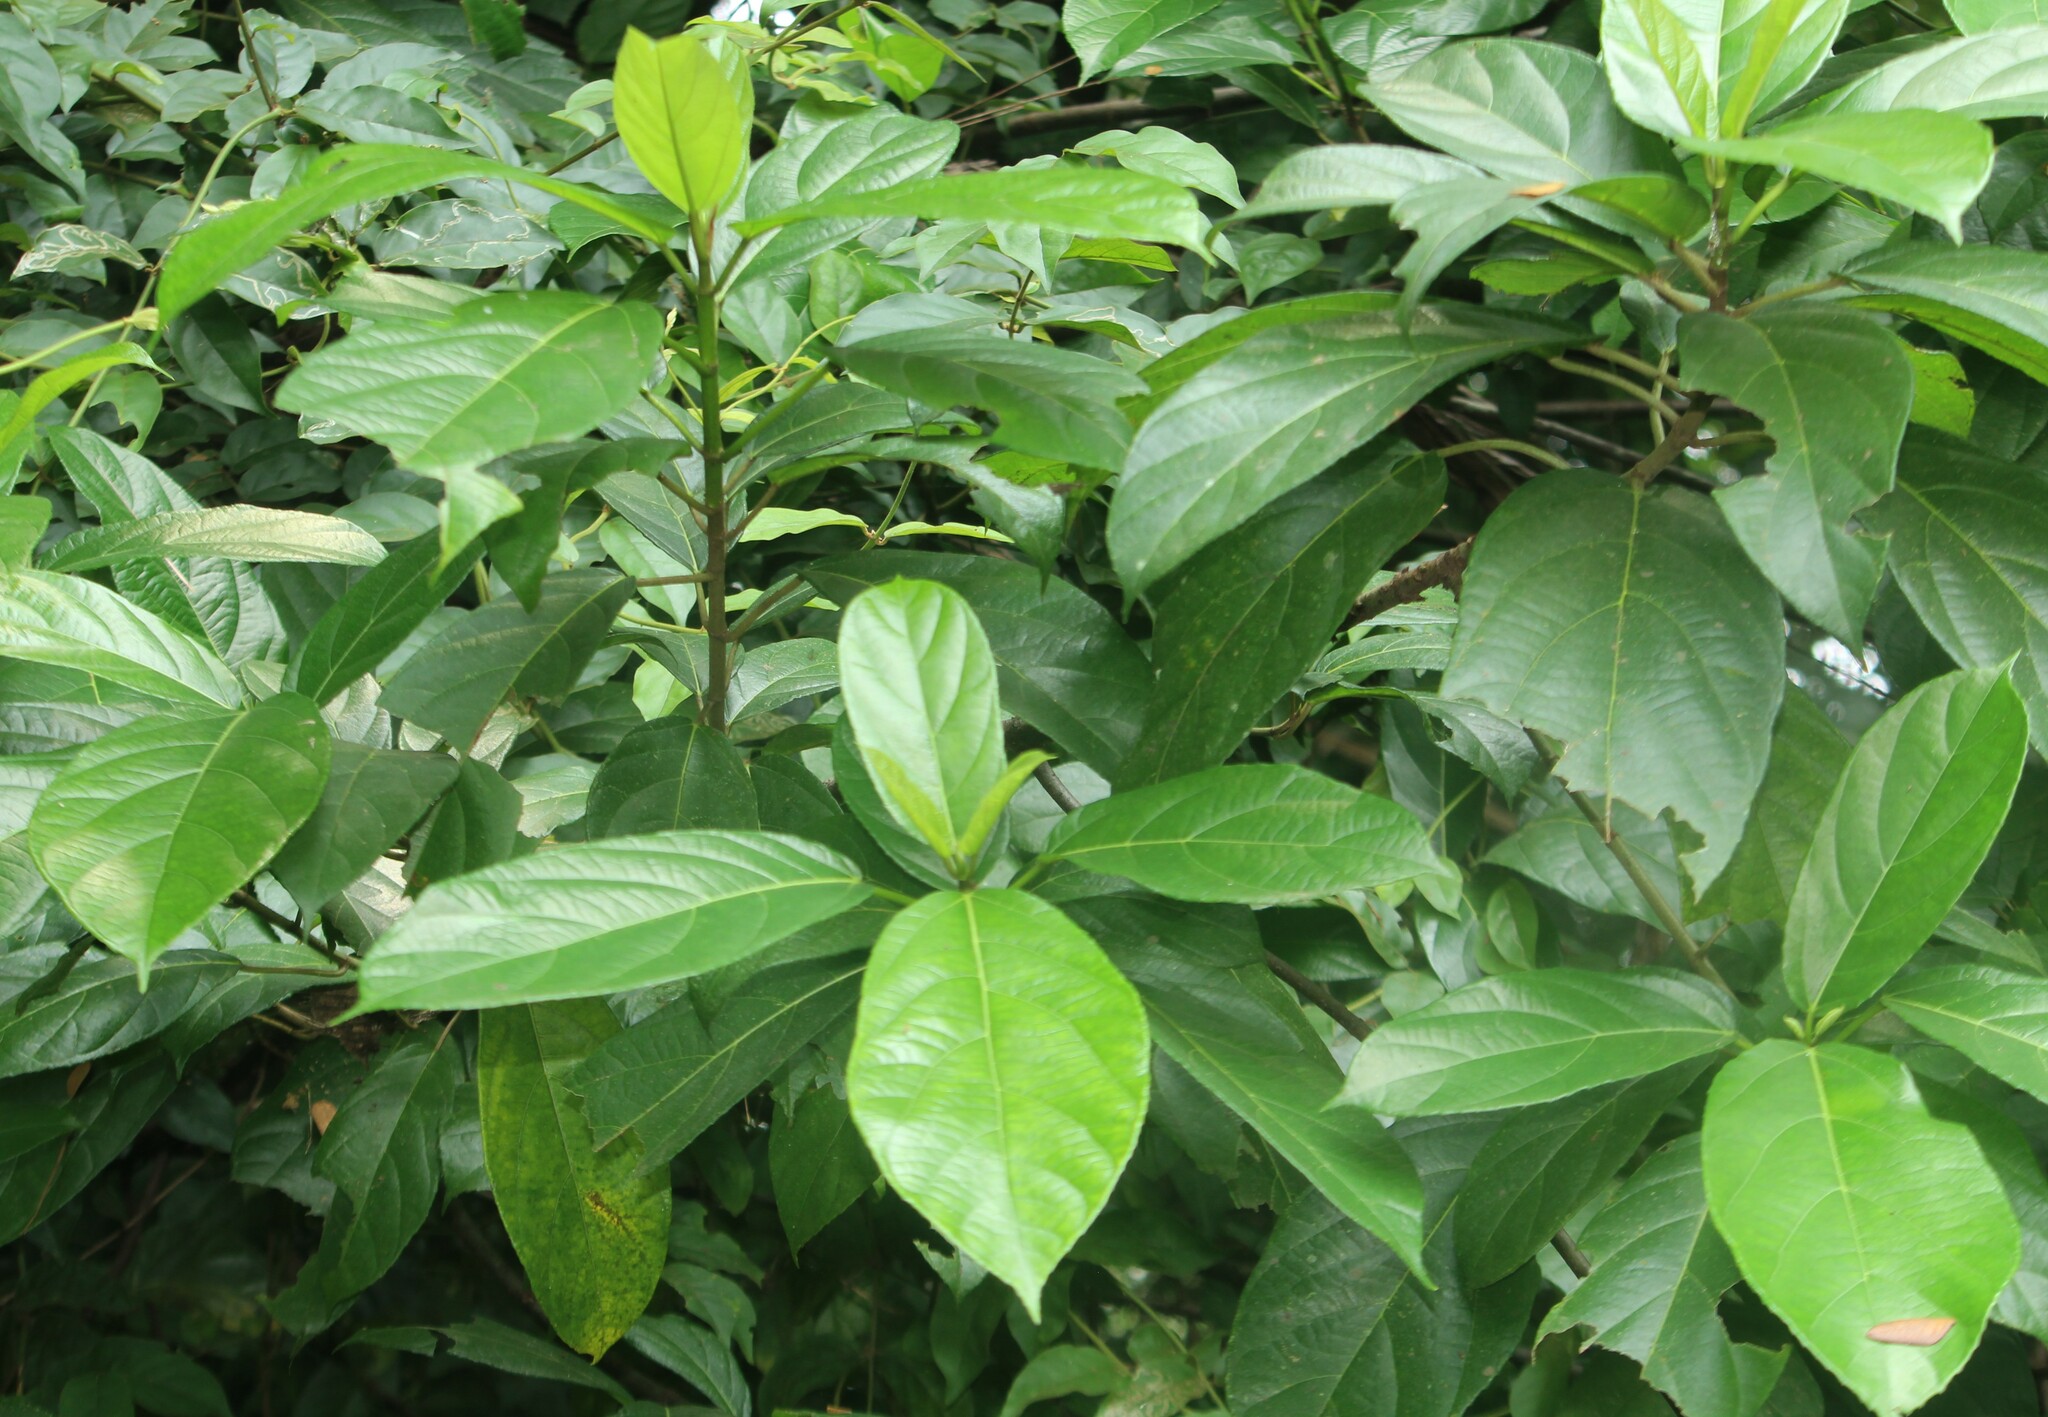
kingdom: Plantae
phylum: Tracheophyta
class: Magnoliopsida
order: Rosales
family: Moraceae
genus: Ficus
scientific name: Ficus hispida
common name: Hairy fig
